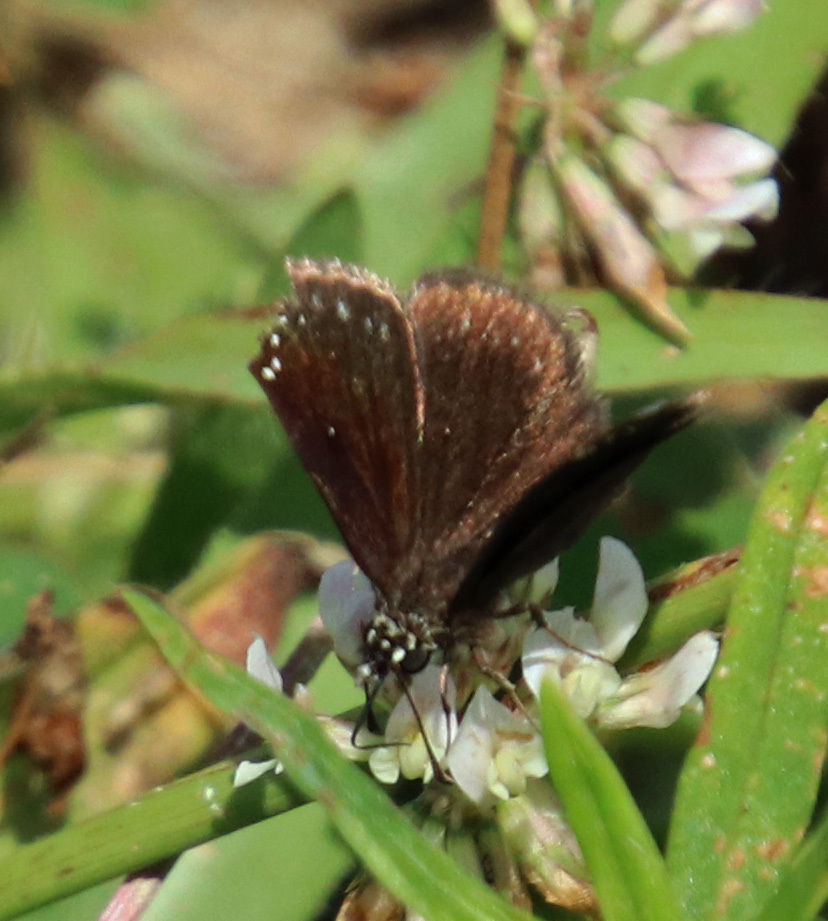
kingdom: Animalia
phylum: Arthropoda
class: Insecta
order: Lepidoptera
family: Hesperiidae
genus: Pholisora
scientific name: Pholisora catullus
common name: Common sootywing
